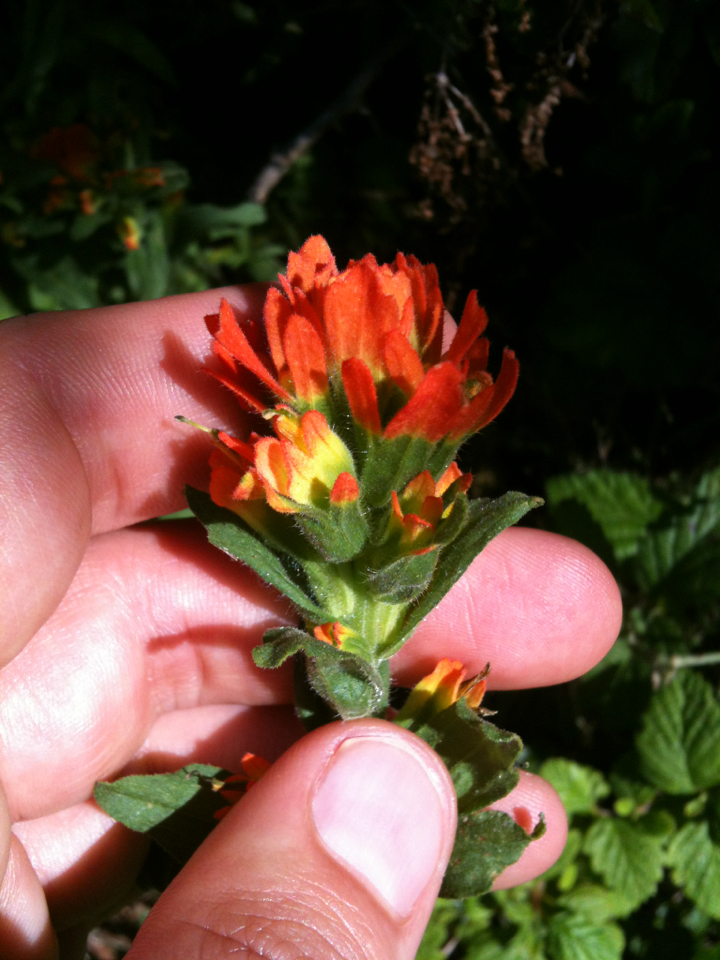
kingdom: Plantae
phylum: Tracheophyta
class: Magnoliopsida
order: Lamiales
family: Orobanchaceae
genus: Castilleja
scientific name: Castilleja affinis
